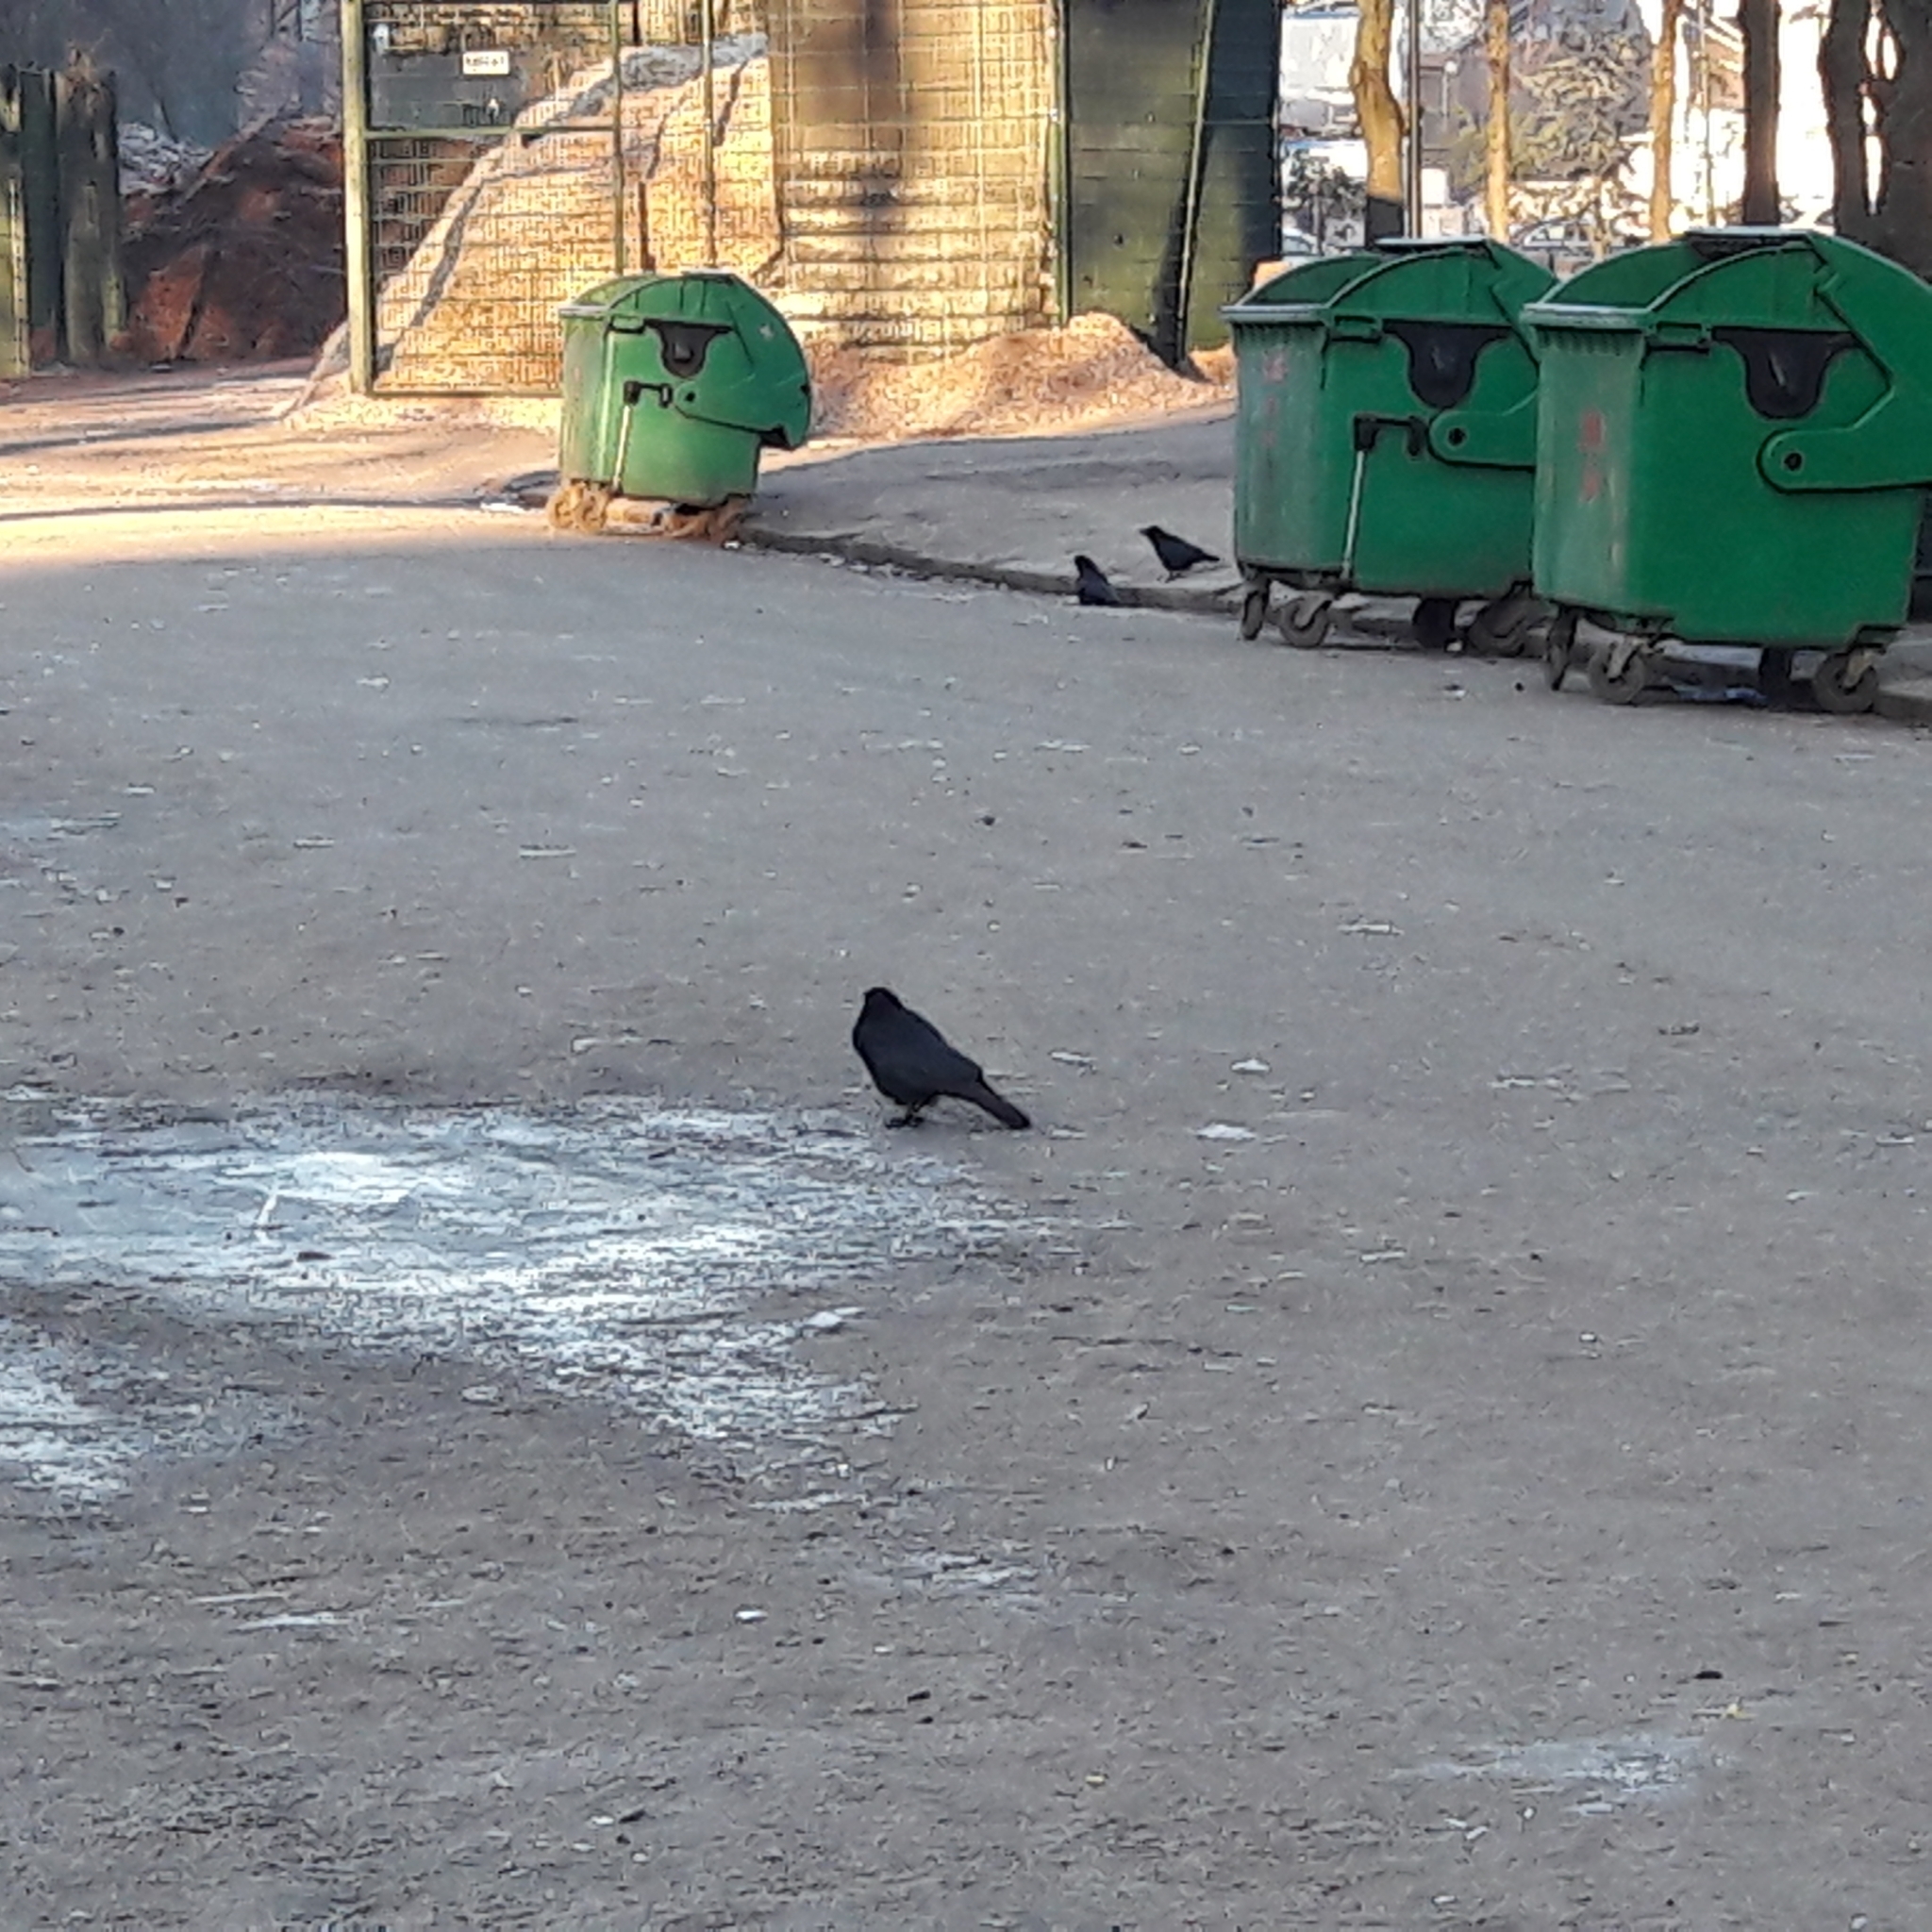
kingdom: Animalia
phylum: Chordata
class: Aves
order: Passeriformes
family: Corvidae
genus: Corvus
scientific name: Corvus corone
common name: Carrion crow
